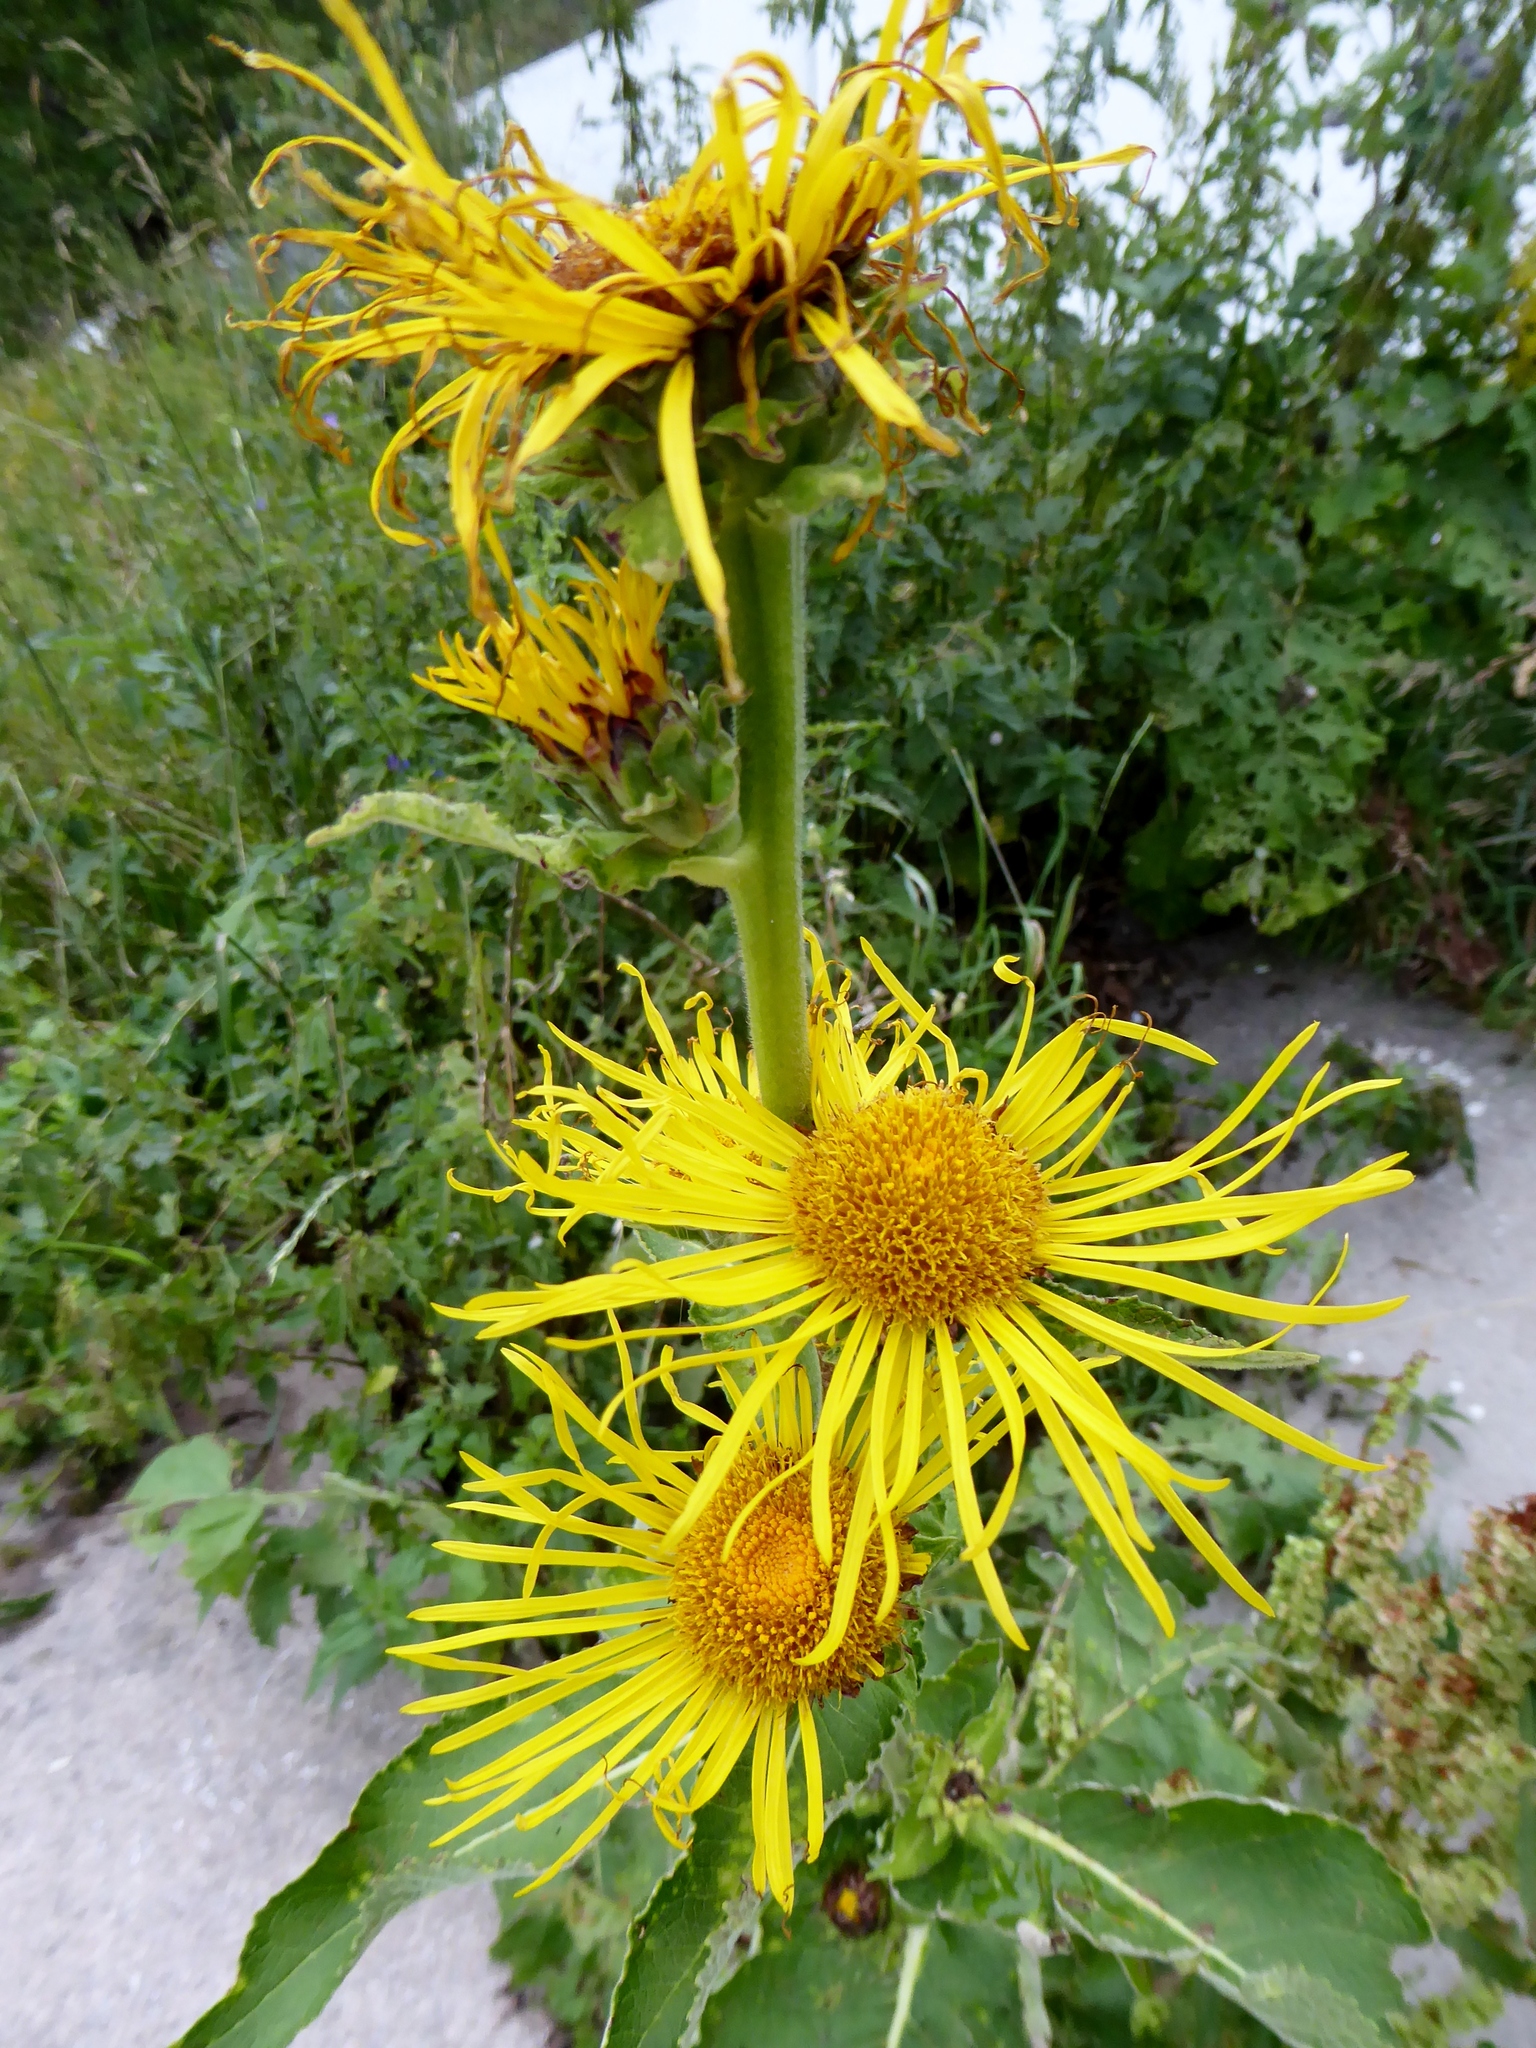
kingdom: Plantae
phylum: Tracheophyta
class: Magnoliopsida
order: Asterales
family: Asteraceae
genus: Inula
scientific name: Inula helenium
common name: Elecampane
